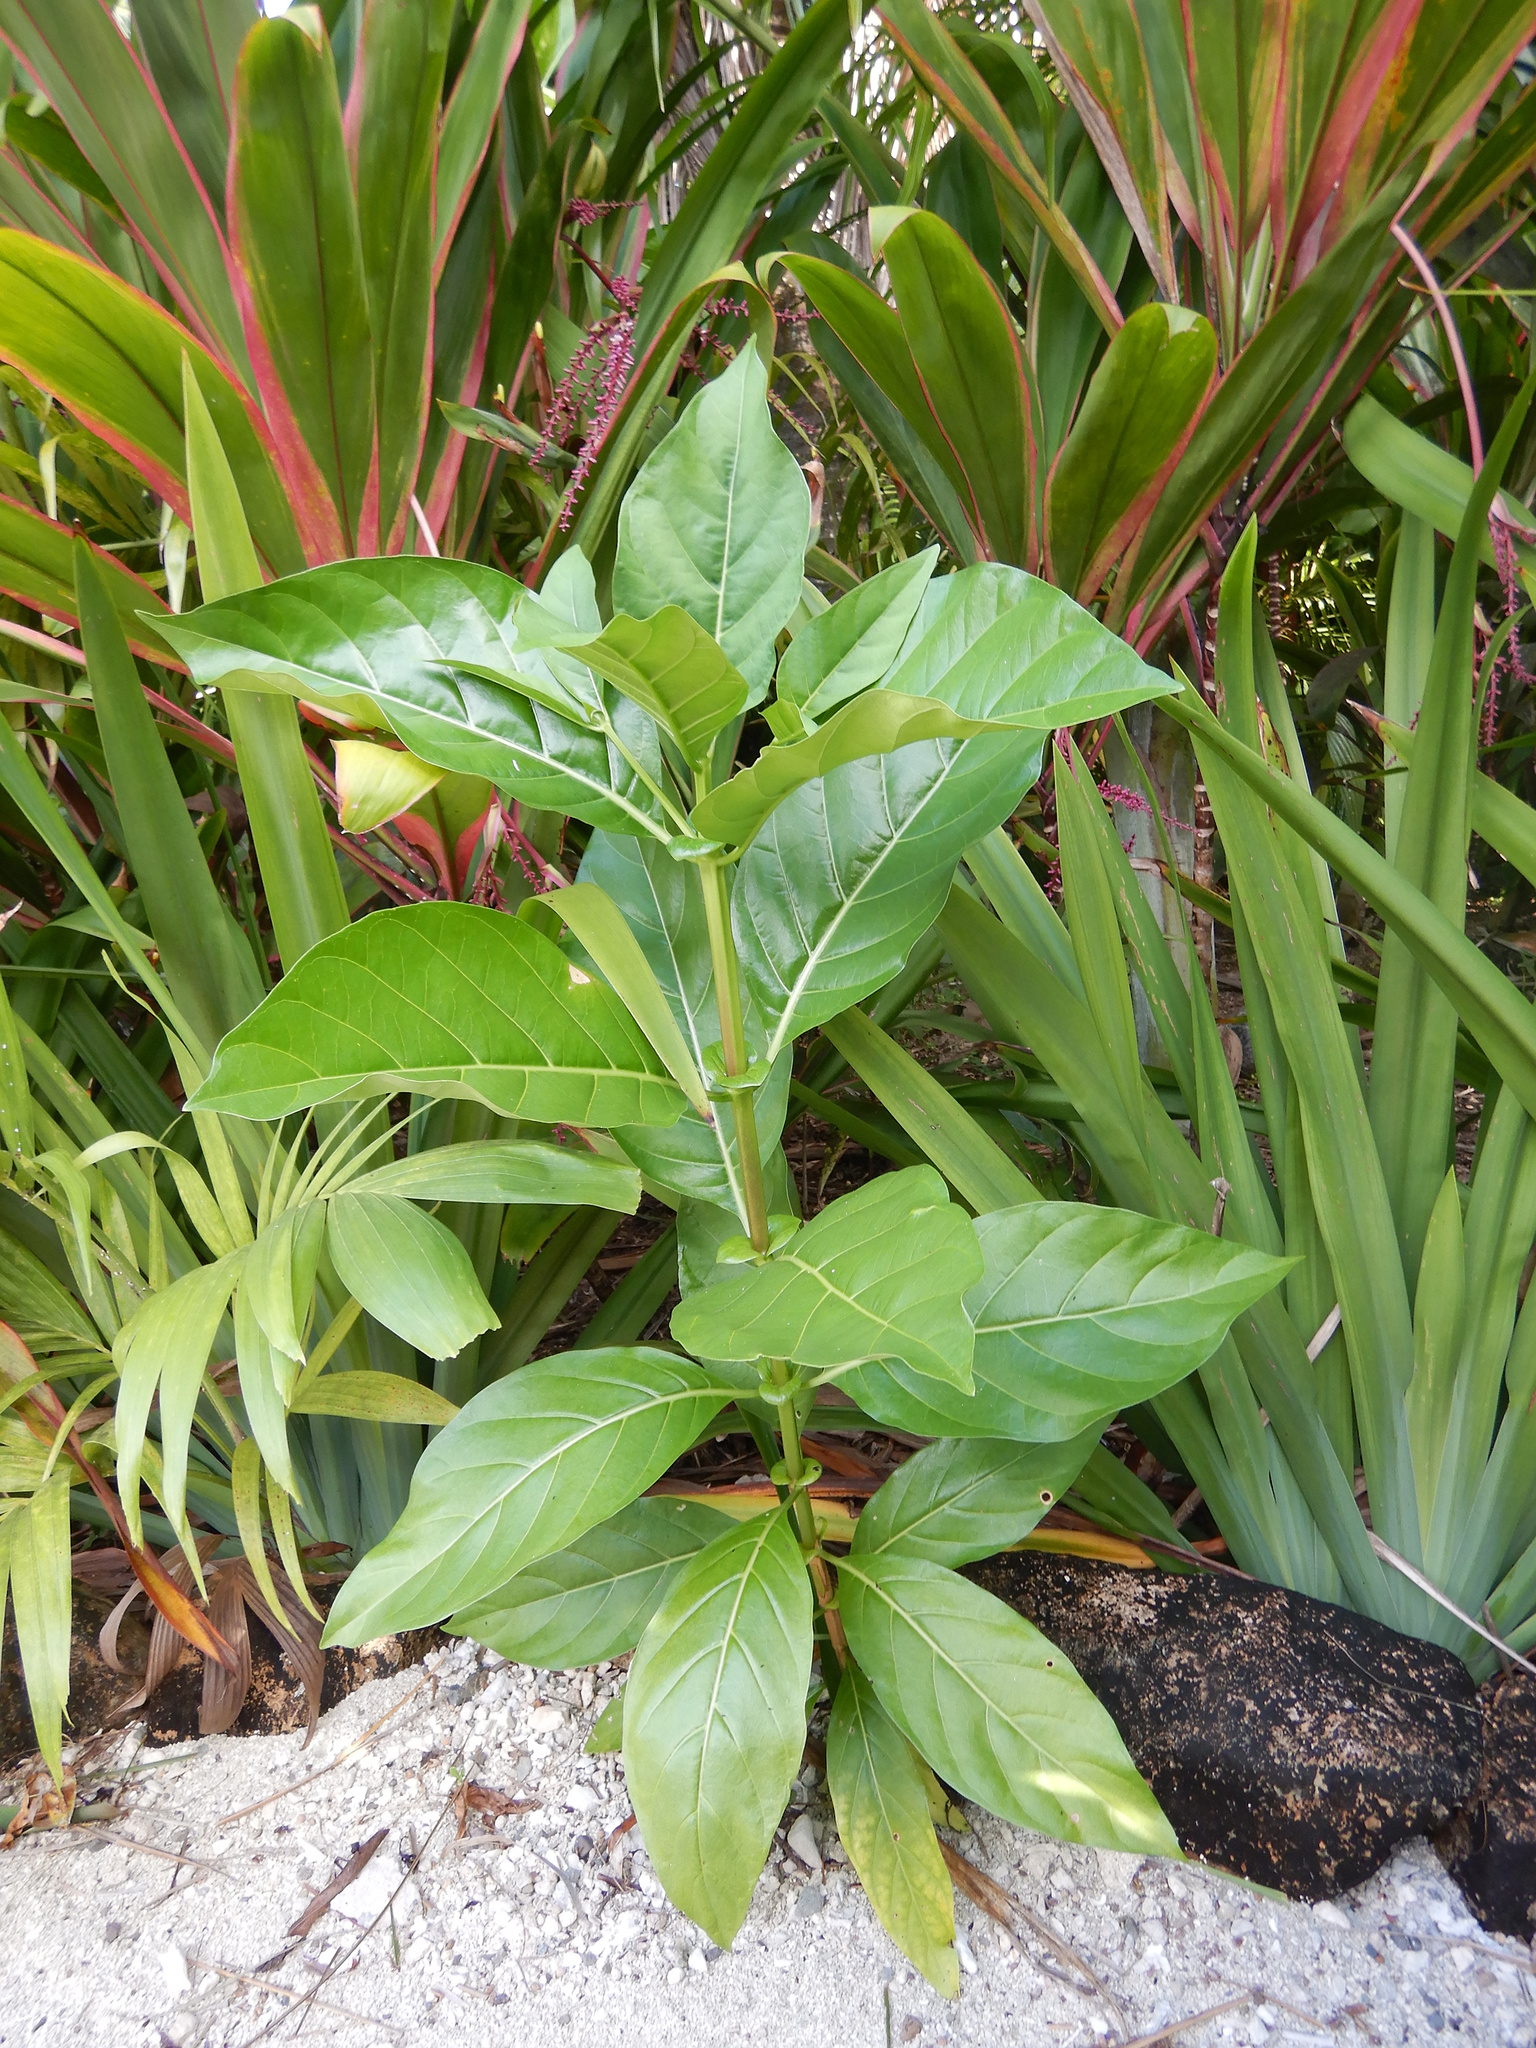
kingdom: Plantae
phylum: Tracheophyta
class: Magnoliopsida
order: Gentianales
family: Rubiaceae
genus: Morinda
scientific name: Morinda citrifolia
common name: Indian-mulberry
